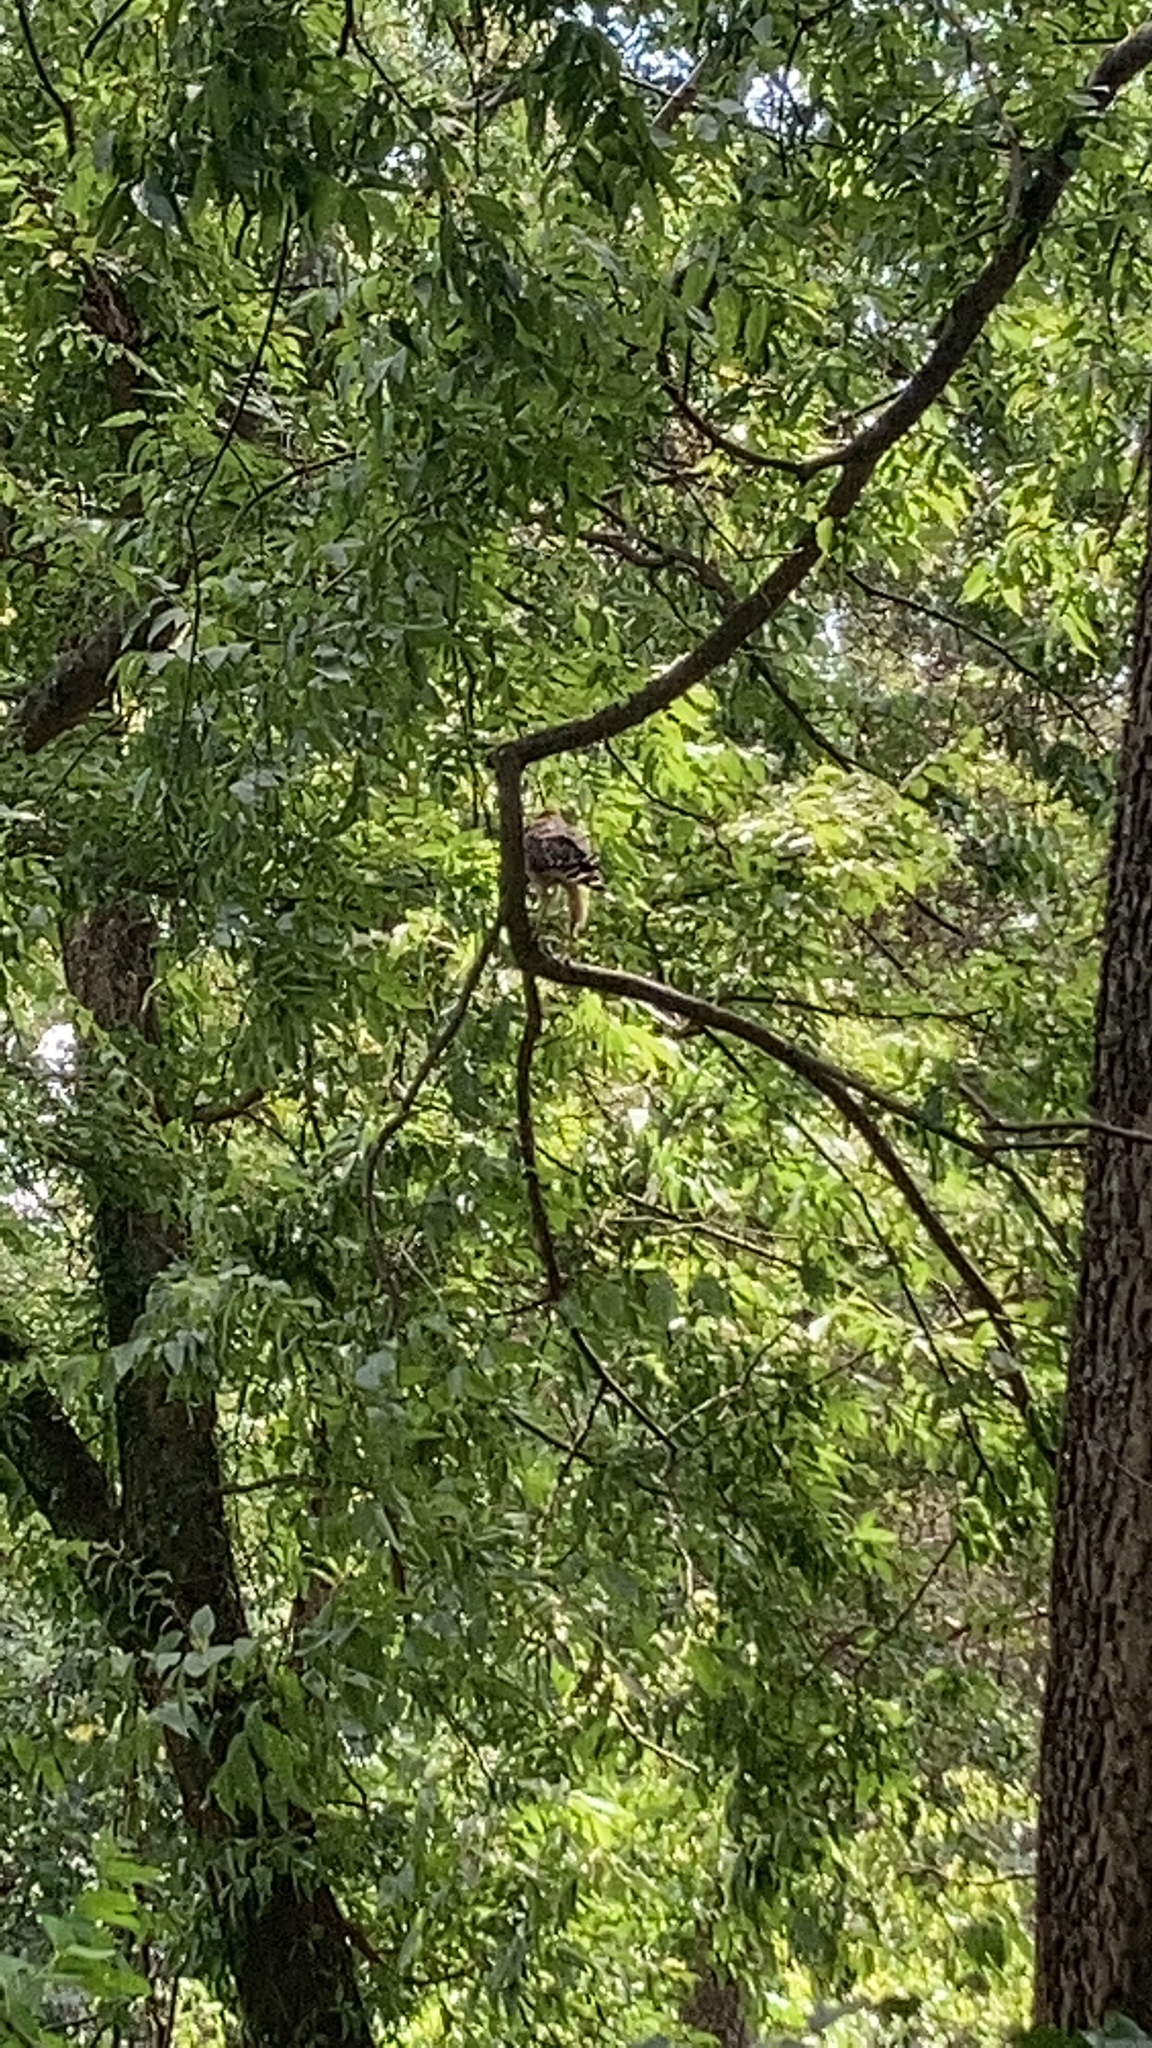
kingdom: Animalia
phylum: Chordata
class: Aves
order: Accipitriformes
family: Accipitridae
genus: Buteo
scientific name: Buteo lineatus
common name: Red-shouldered hawk
